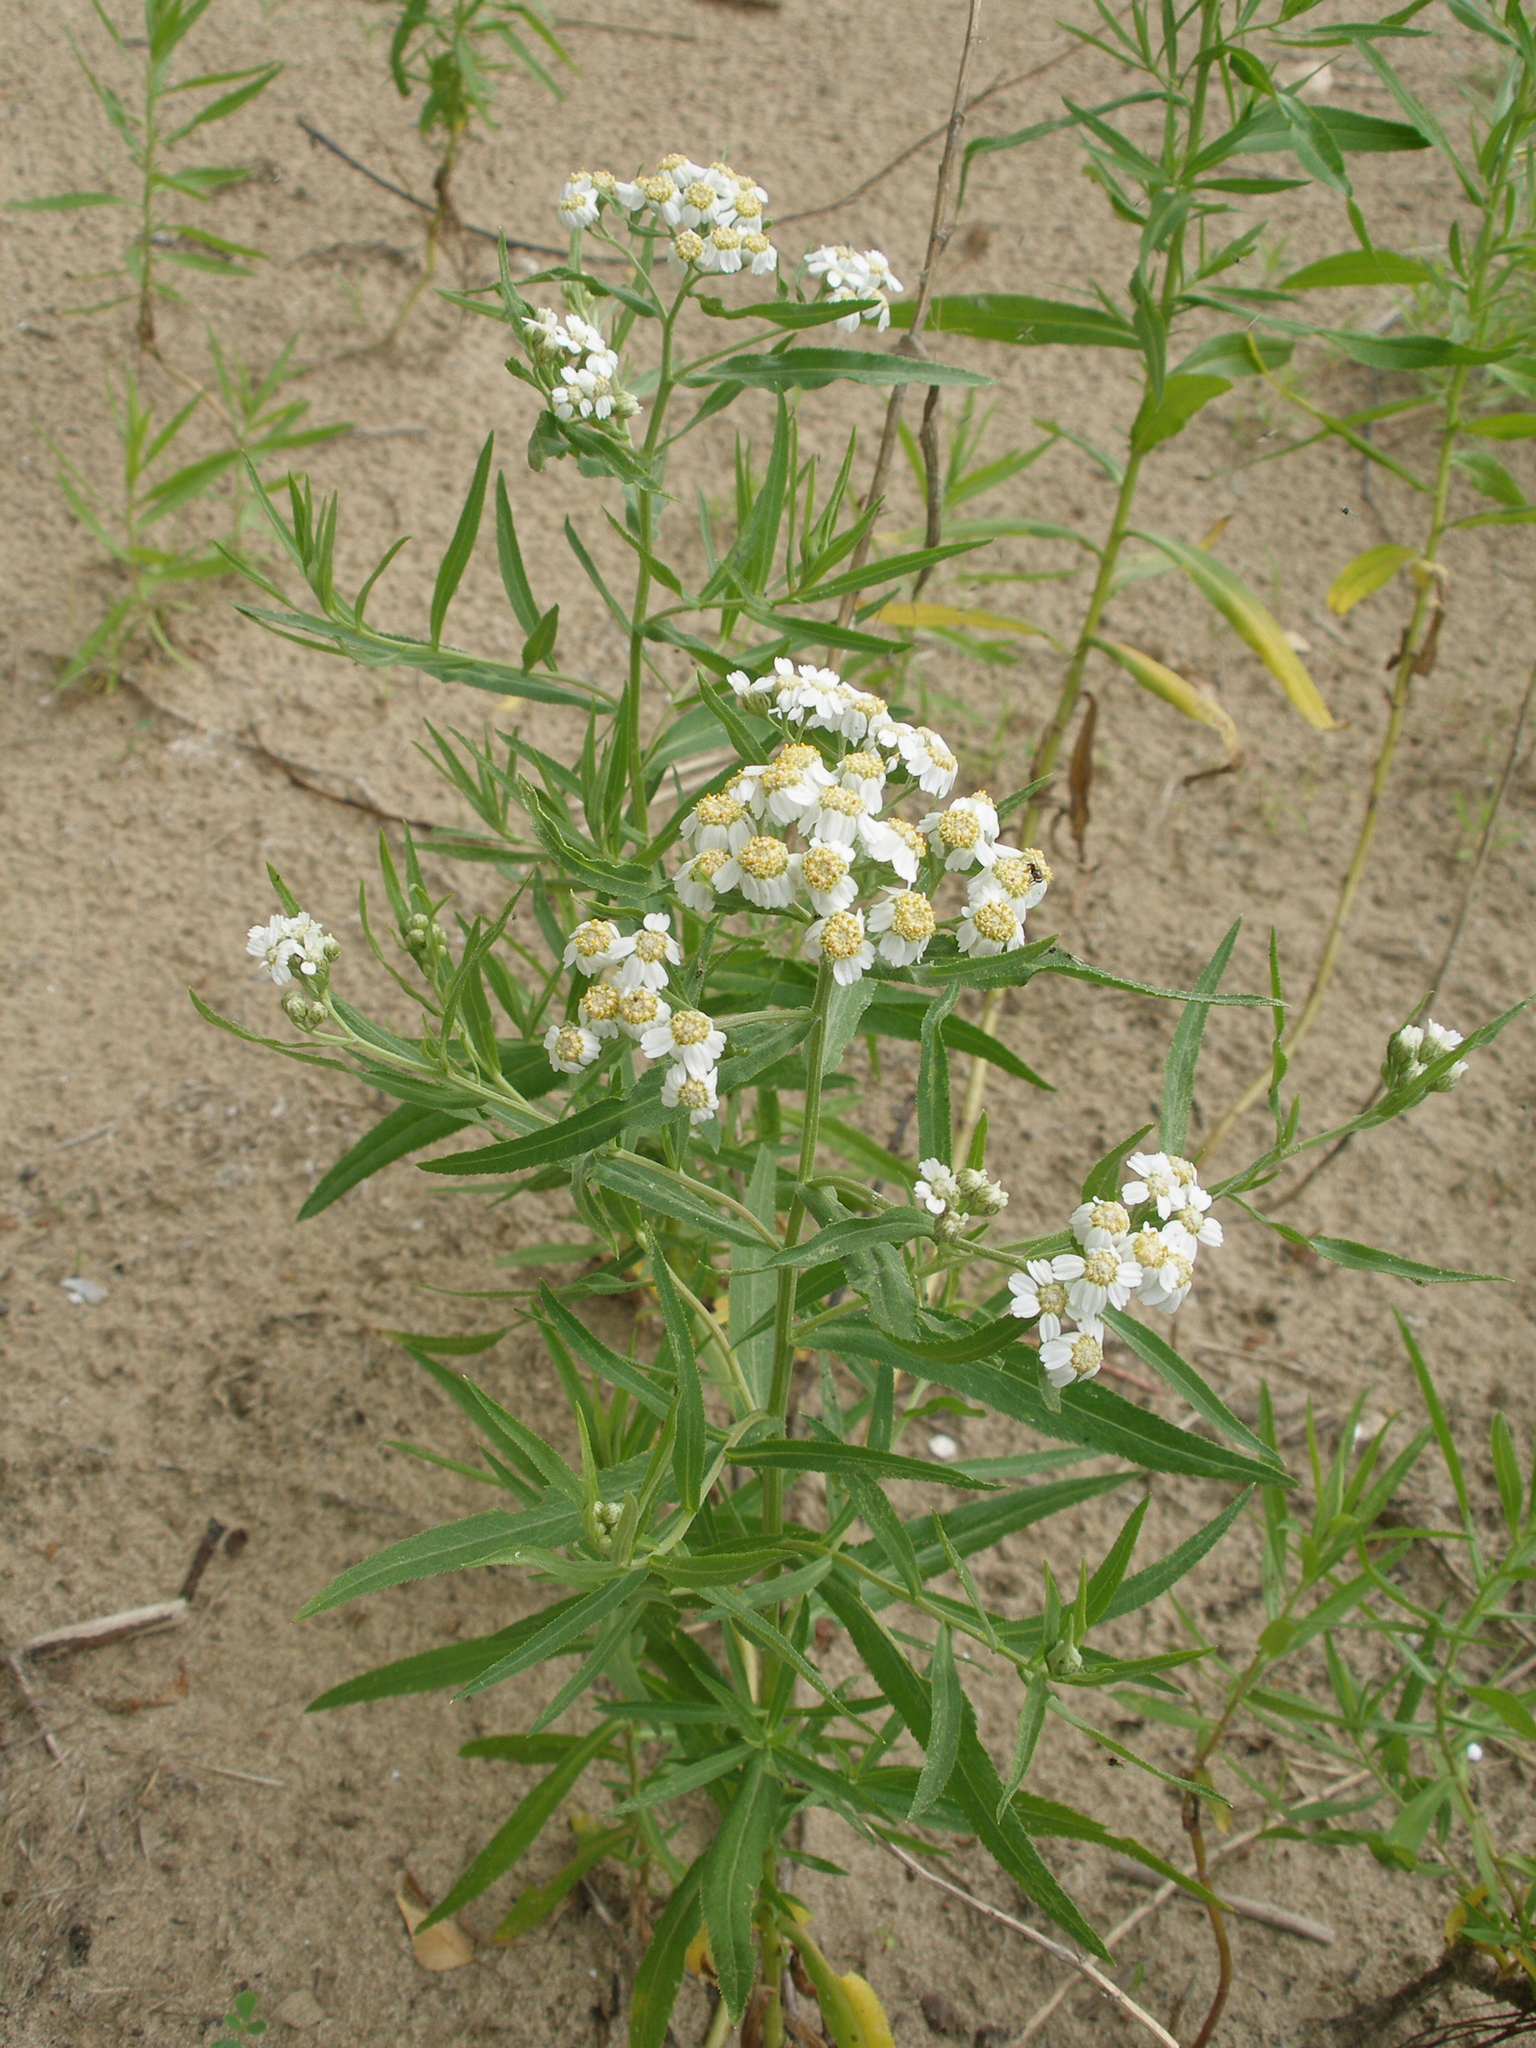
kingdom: Plantae
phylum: Tracheophyta
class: Magnoliopsida
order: Asterales
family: Asteraceae
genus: Achillea
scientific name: Achillea salicifolia
